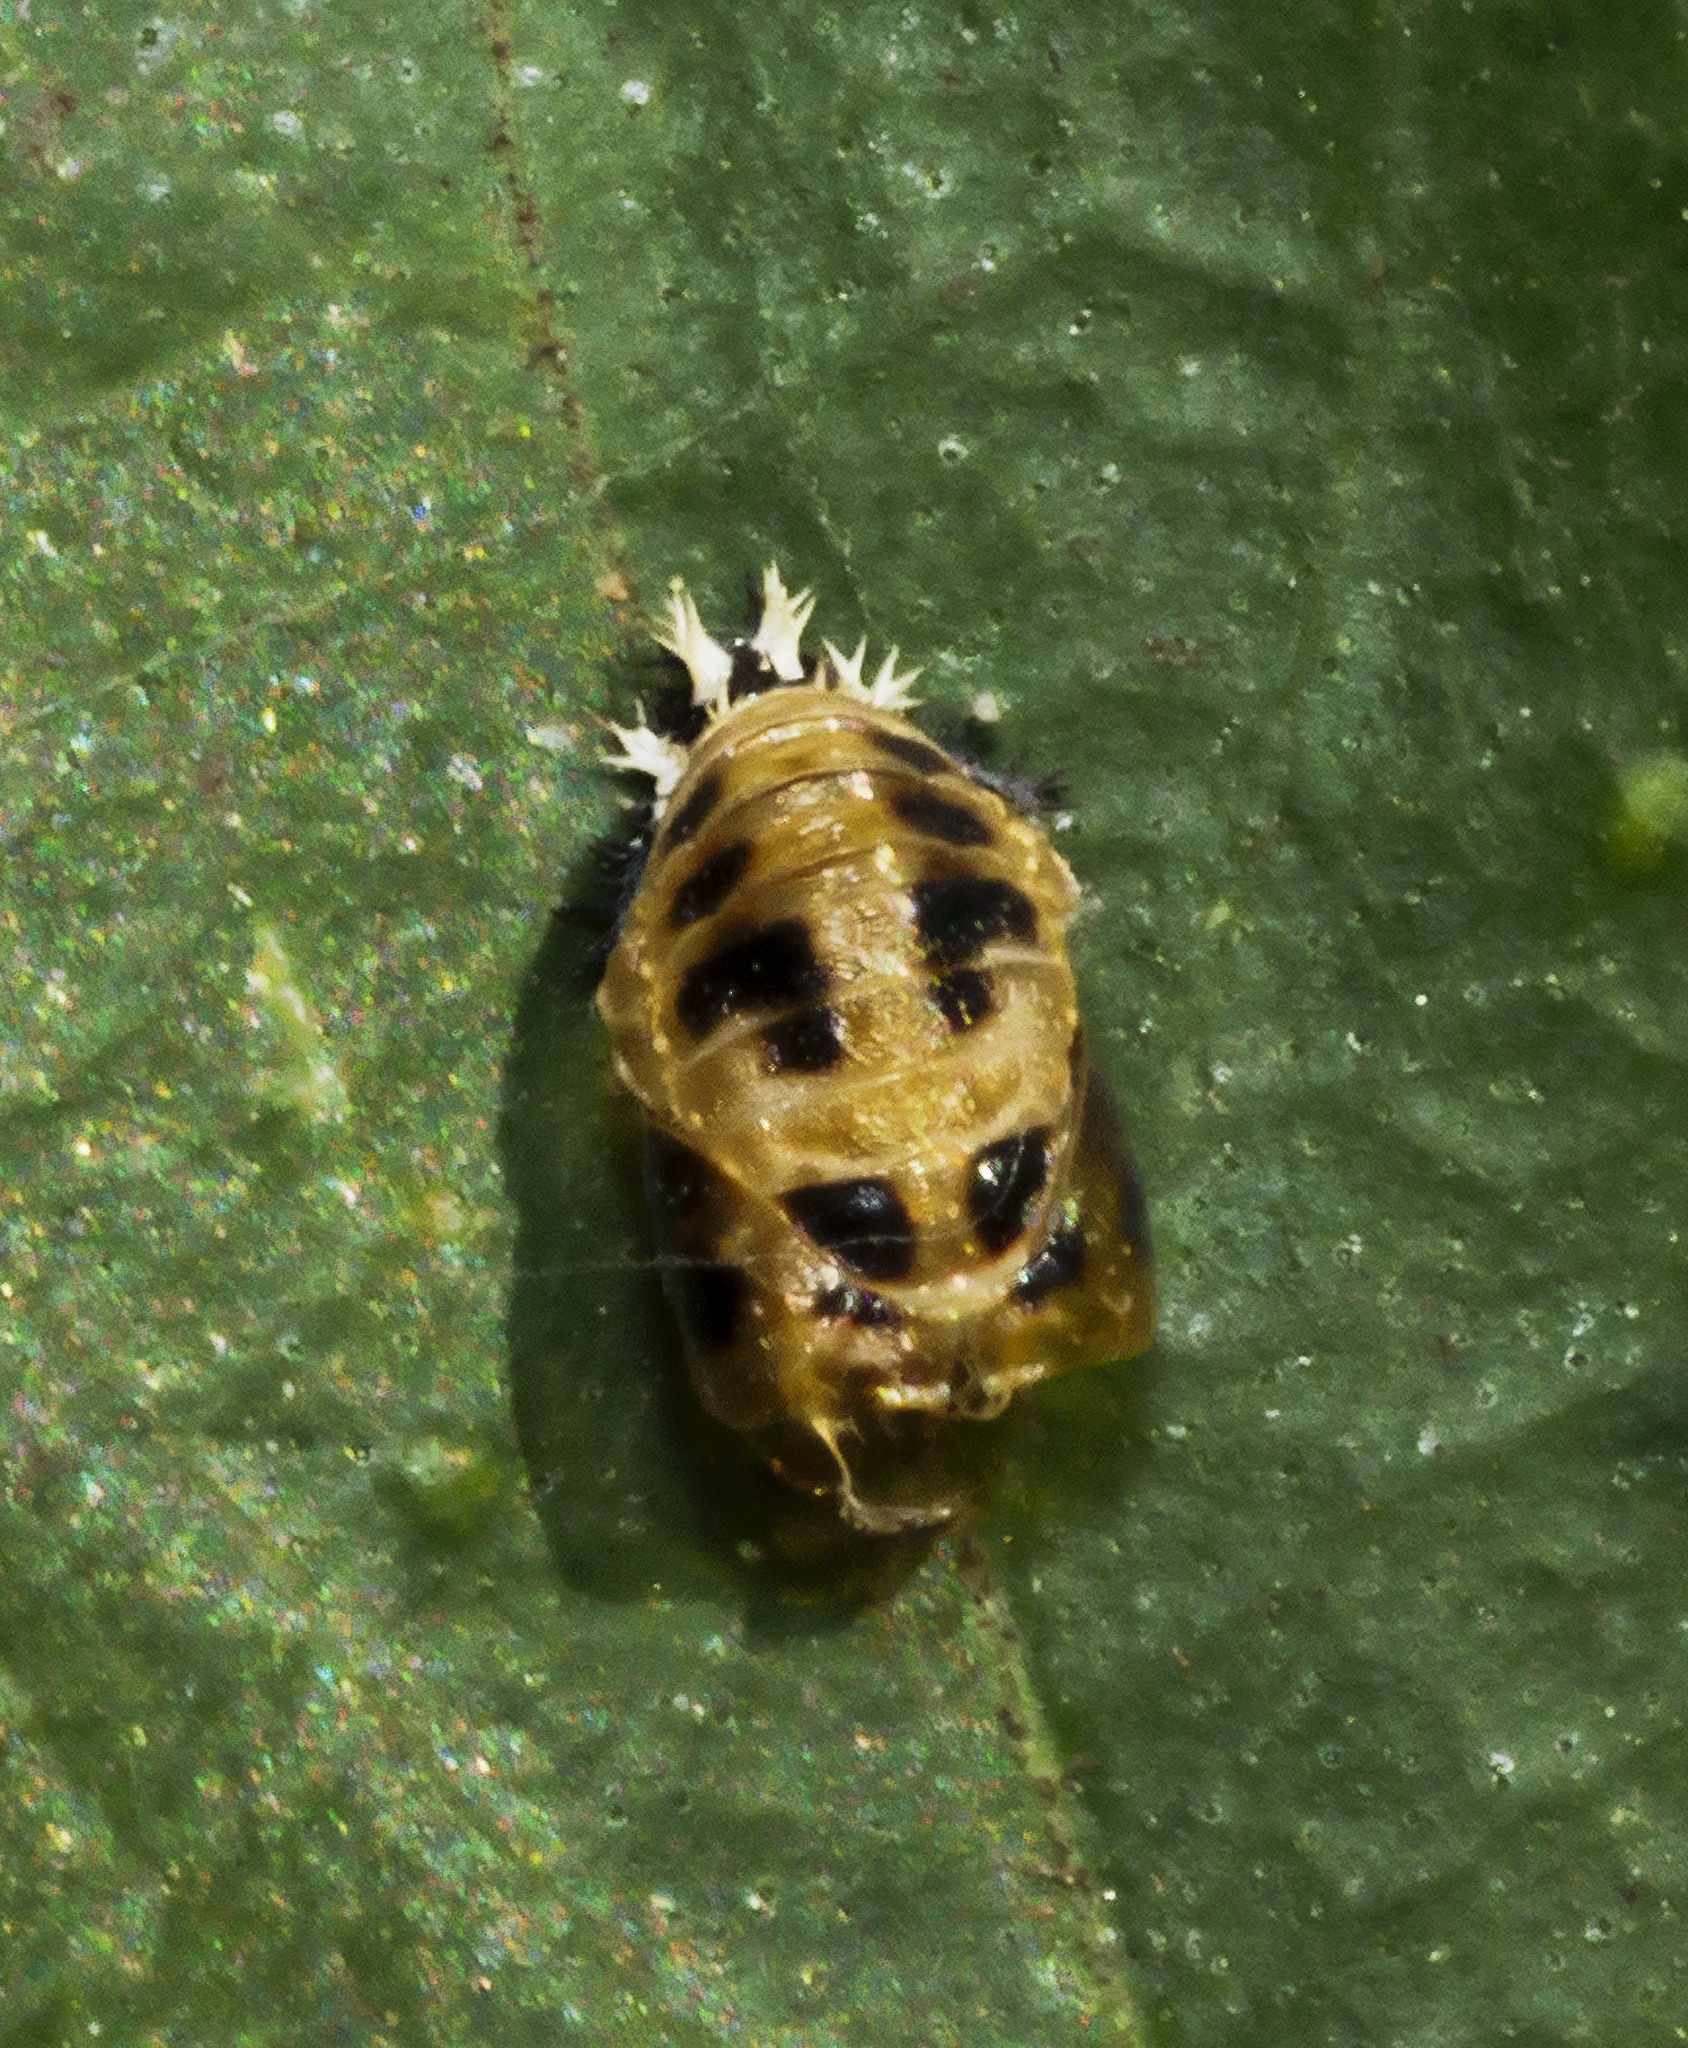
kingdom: Animalia
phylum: Arthropoda
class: Insecta
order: Coleoptera
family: Coccinellidae
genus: Harmonia
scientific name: Harmonia axyridis
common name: Harlequin ladybird
